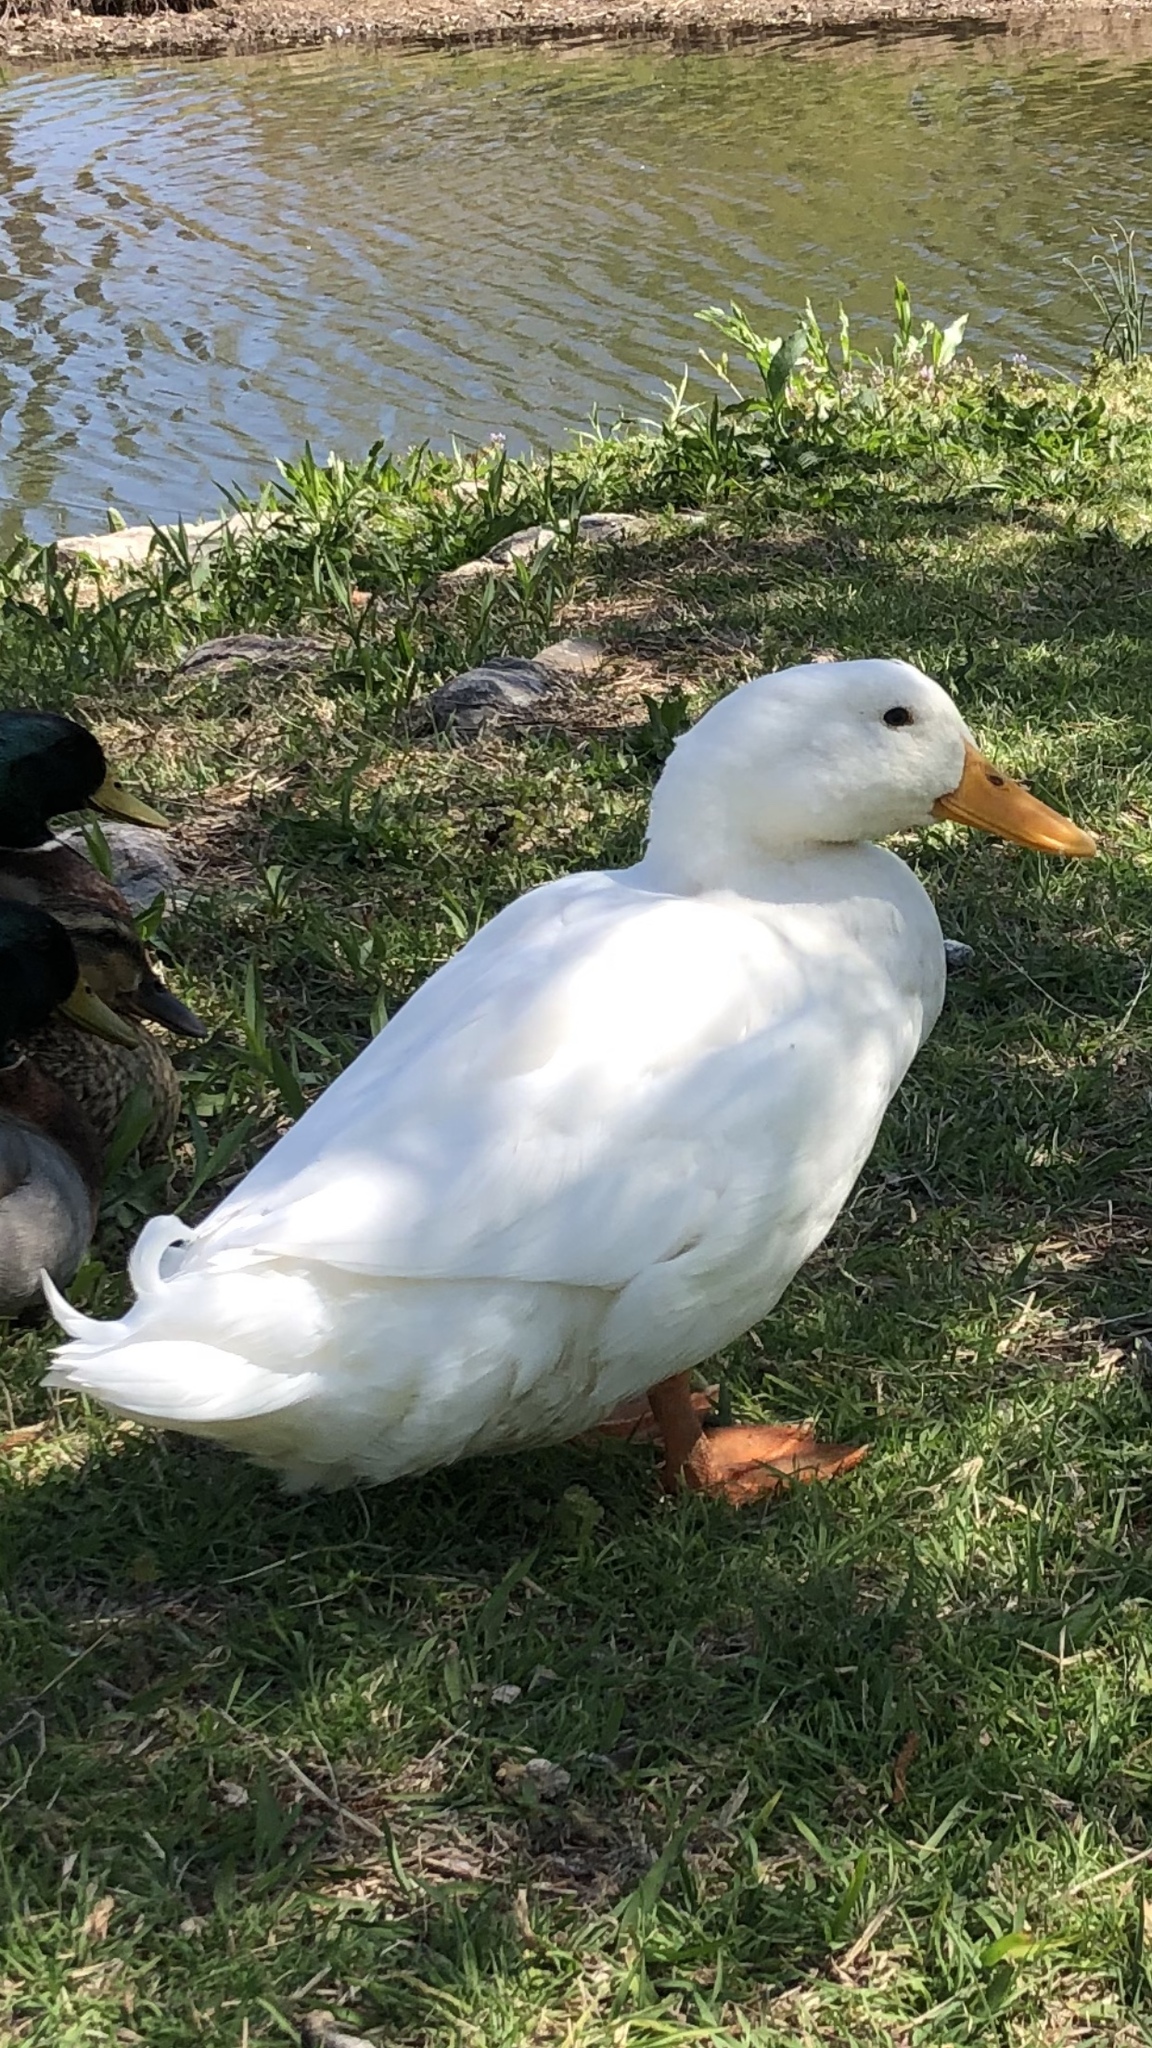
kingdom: Animalia
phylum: Chordata
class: Aves
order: Anseriformes
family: Anatidae
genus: Anas
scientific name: Anas platyrhynchos
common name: Mallard
